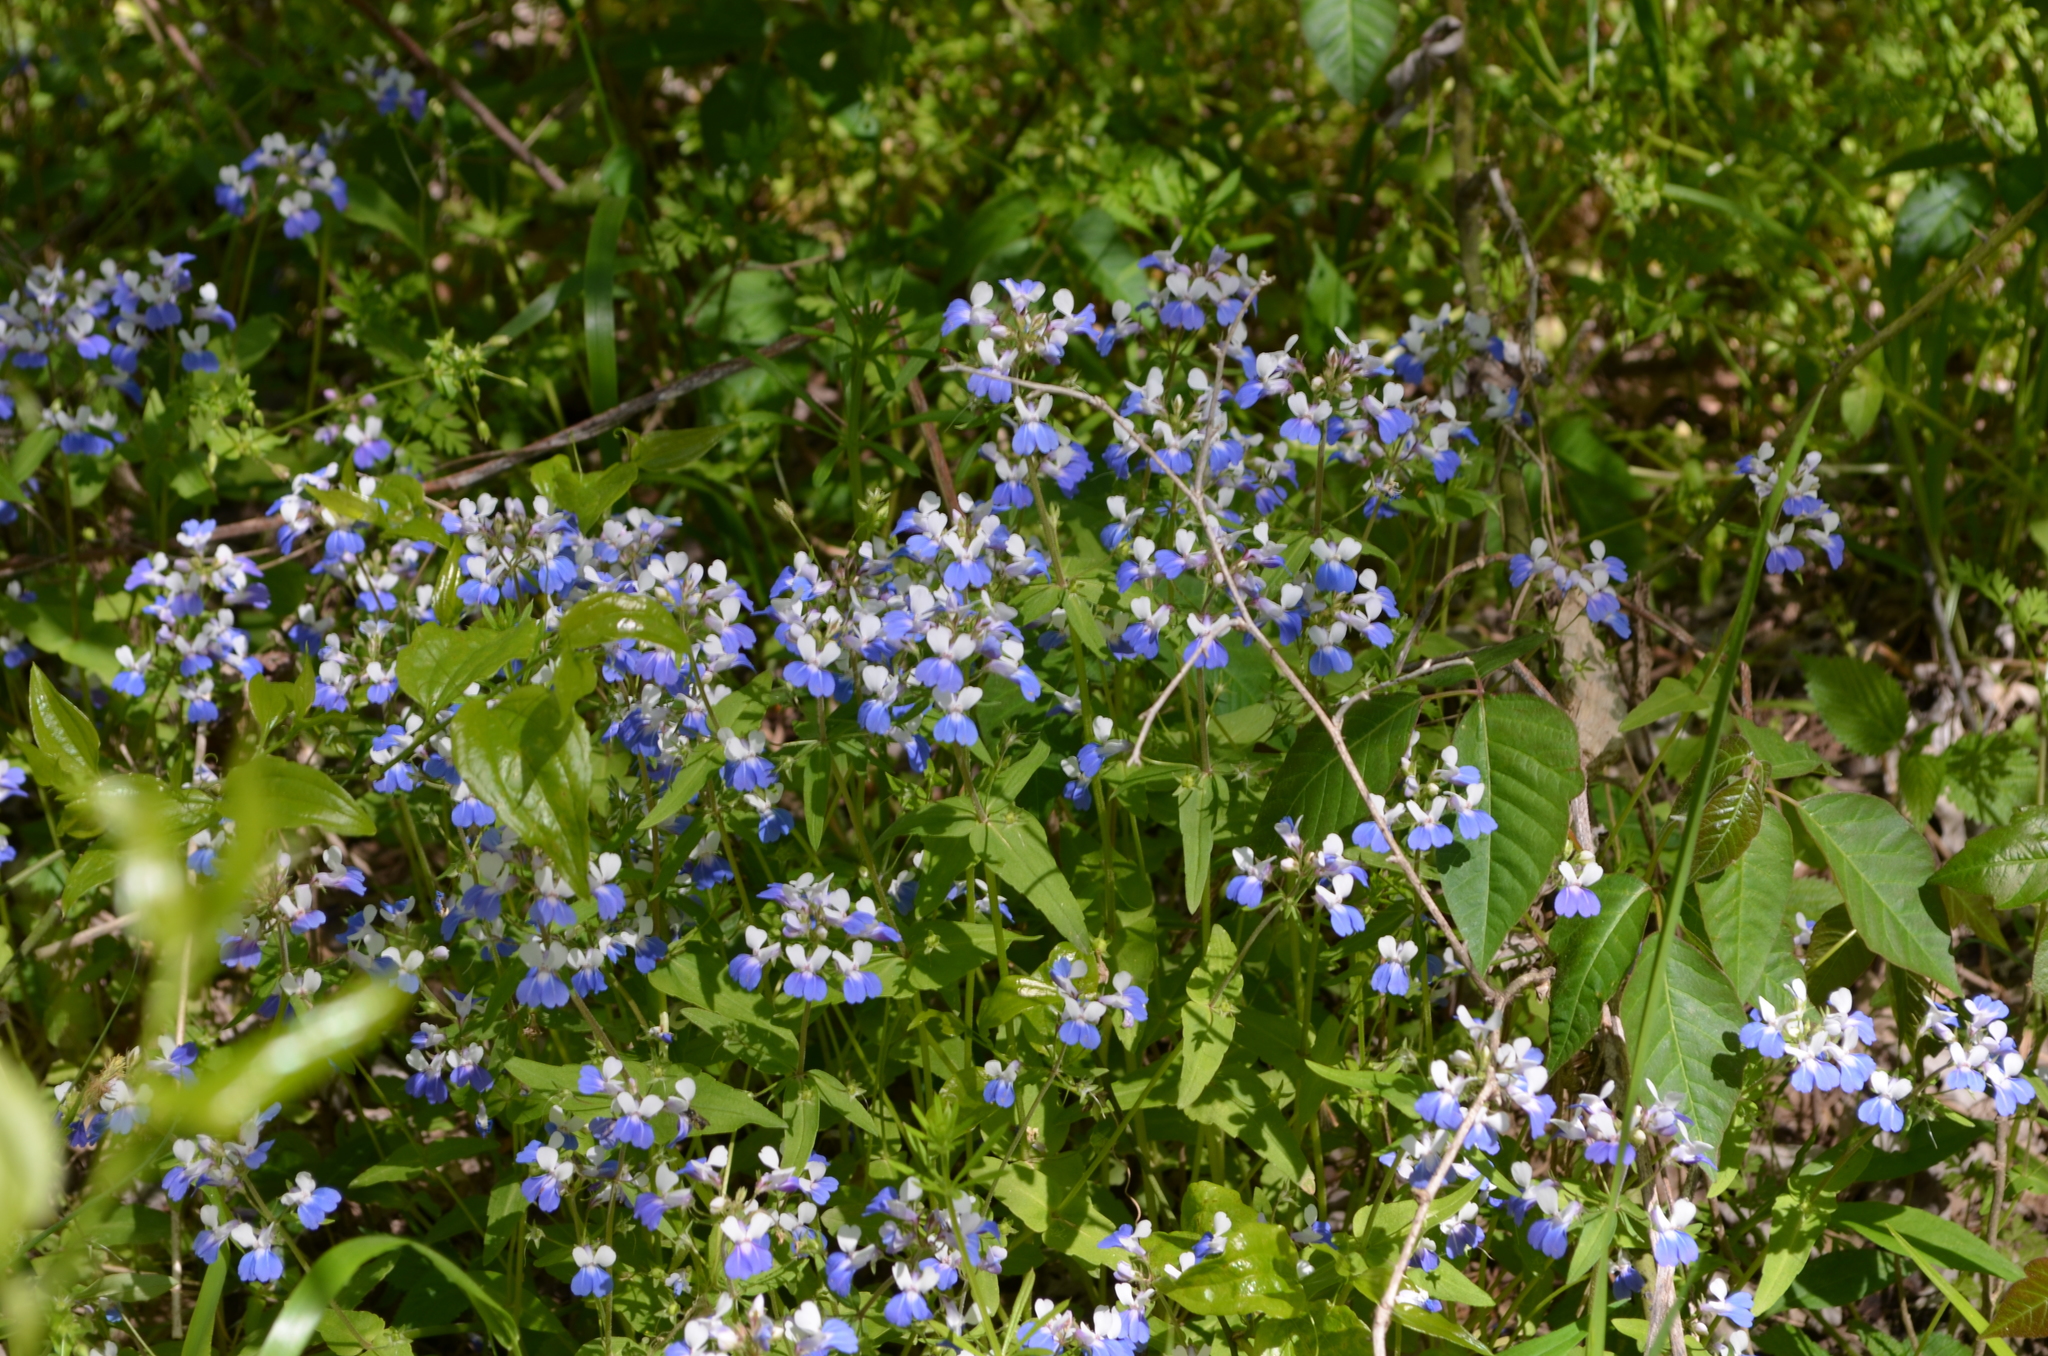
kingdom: Plantae
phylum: Tracheophyta
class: Magnoliopsida
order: Lamiales
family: Plantaginaceae
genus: Collinsia
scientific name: Collinsia verna
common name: Broad-leaved collinsia
